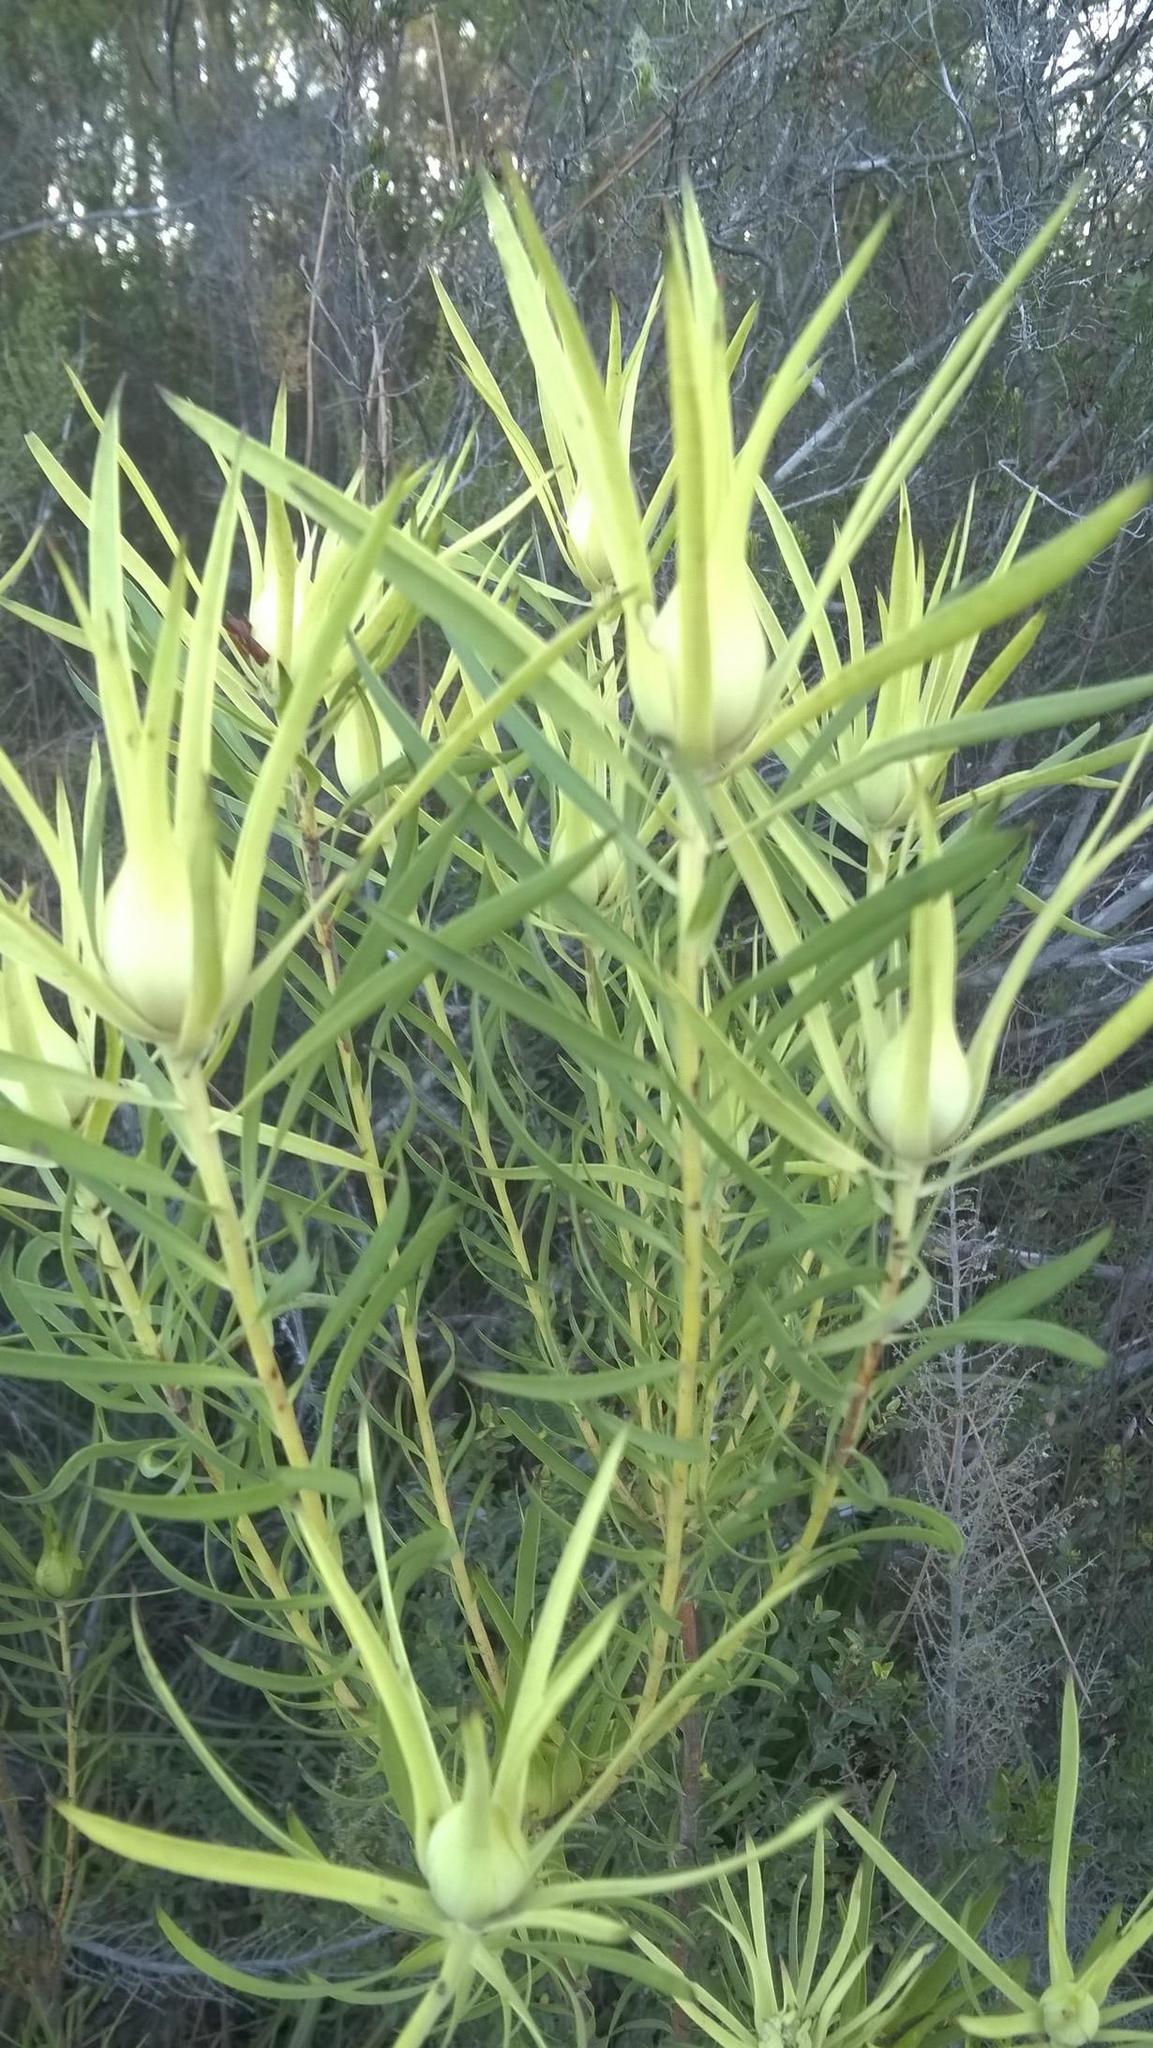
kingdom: Plantae
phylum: Tracheophyta
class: Magnoliopsida
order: Proteales
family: Proteaceae
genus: Leucadendron
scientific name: Leucadendron salignum
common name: Common sunshine conebush
